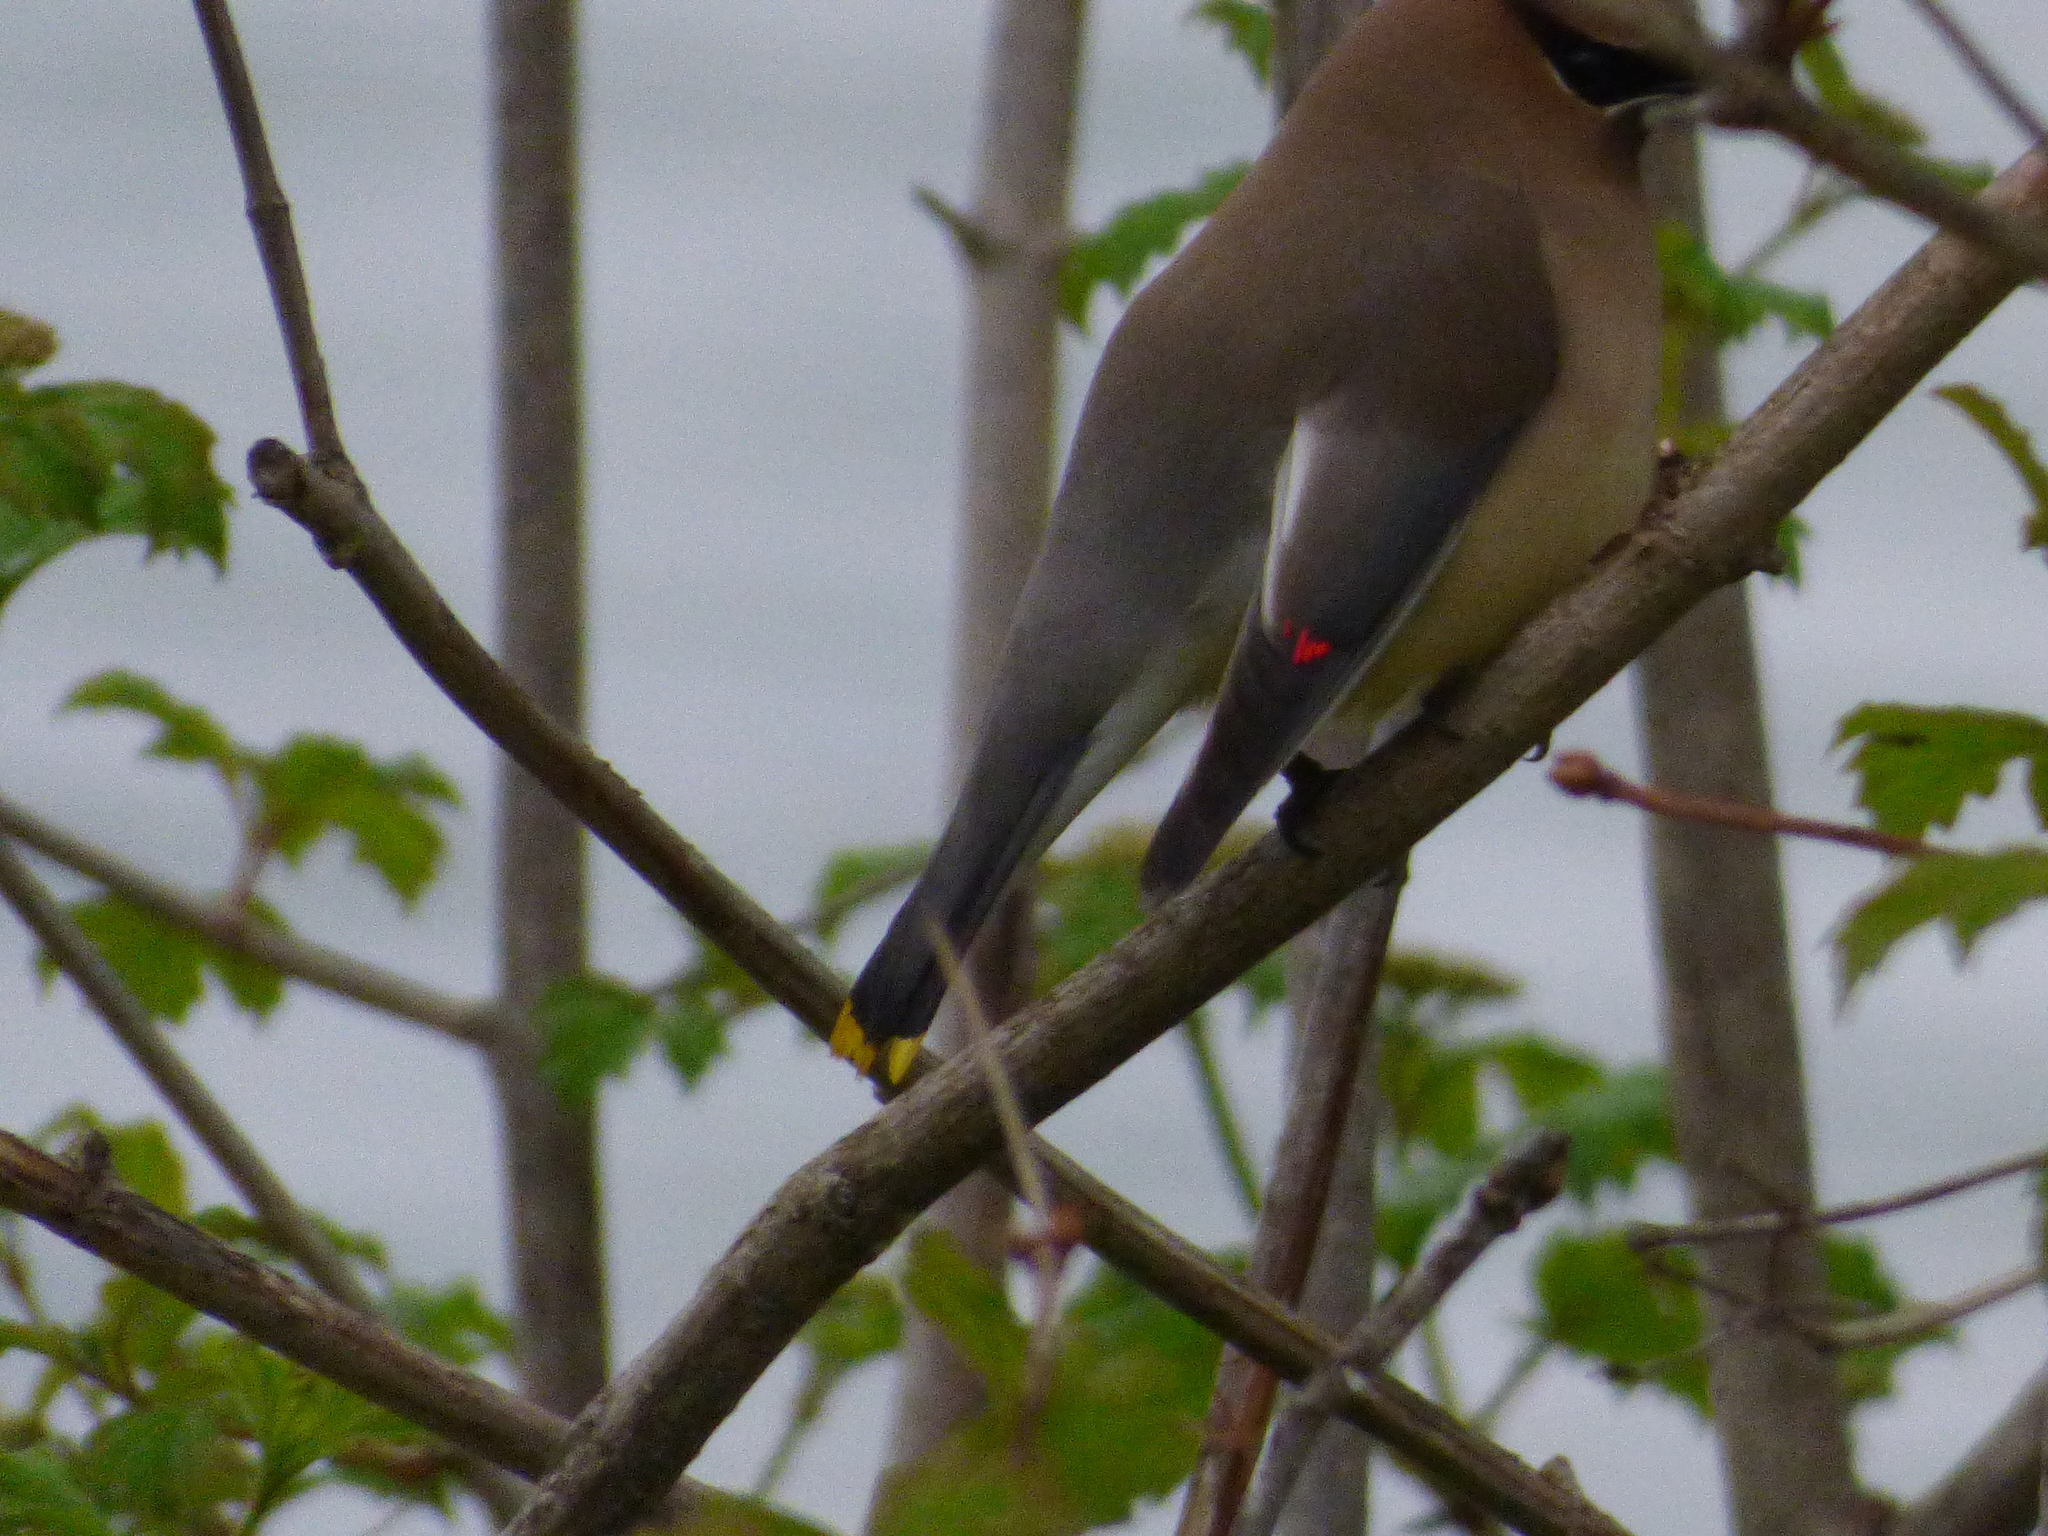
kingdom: Animalia
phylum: Chordata
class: Aves
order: Passeriformes
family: Bombycillidae
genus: Bombycilla
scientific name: Bombycilla cedrorum
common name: Cedar waxwing
